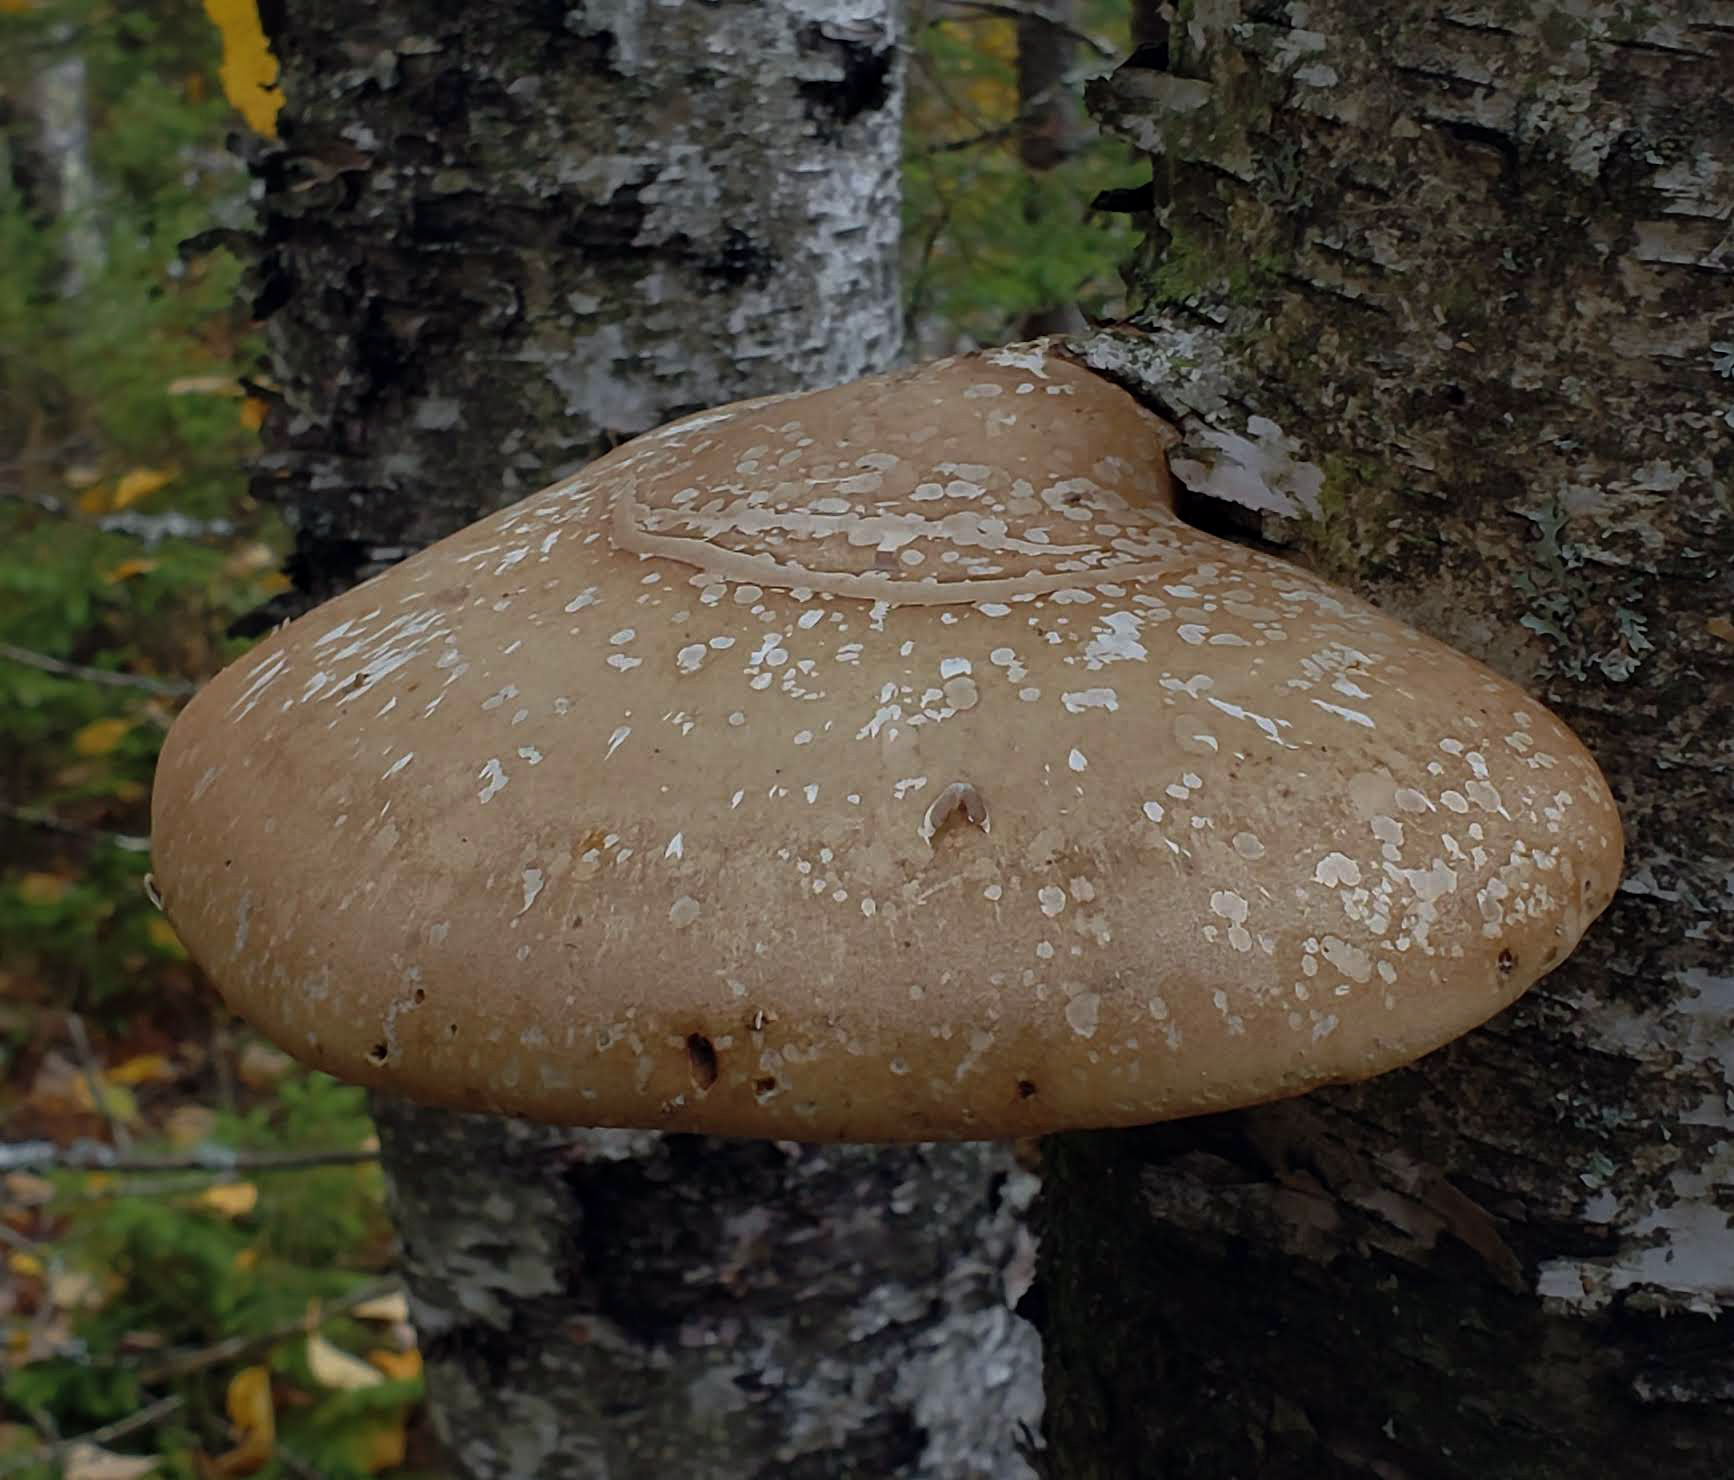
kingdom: Fungi
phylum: Basidiomycota
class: Agaricomycetes
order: Polyporales
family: Fomitopsidaceae
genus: Fomitopsis
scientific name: Fomitopsis betulina
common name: Birch polypore
